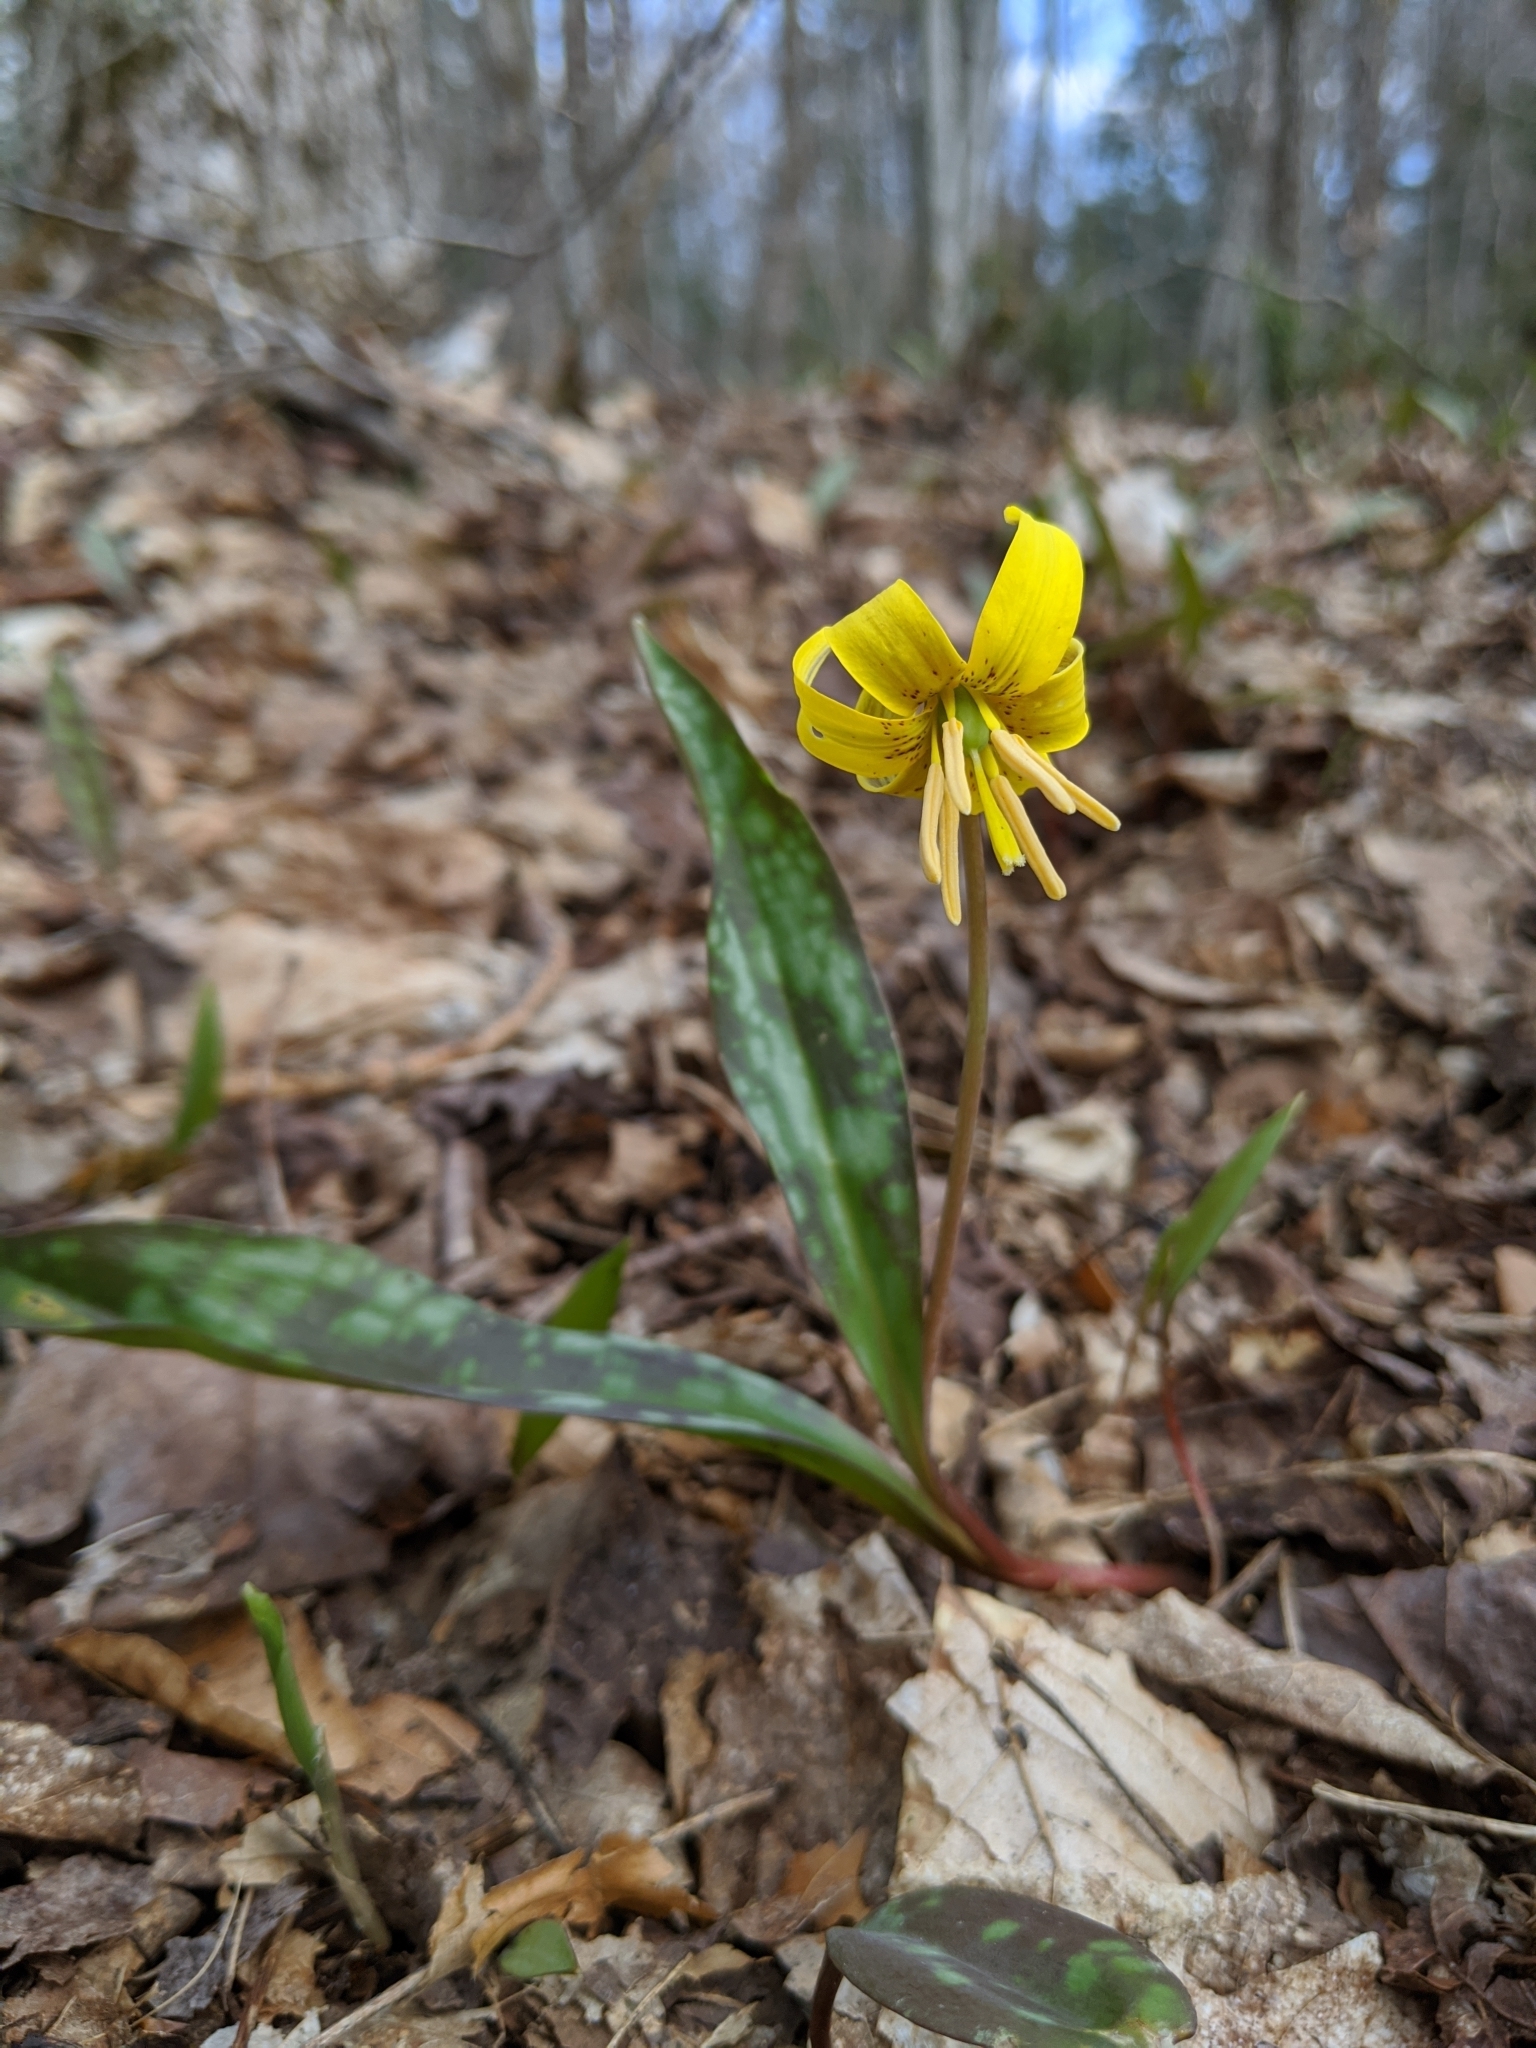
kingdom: Plantae
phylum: Tracheophyta
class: Liliopsida
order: Liliales
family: Liliaceae
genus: Erythronium
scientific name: Erythronium americanum
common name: Yellow adder's-tongue
